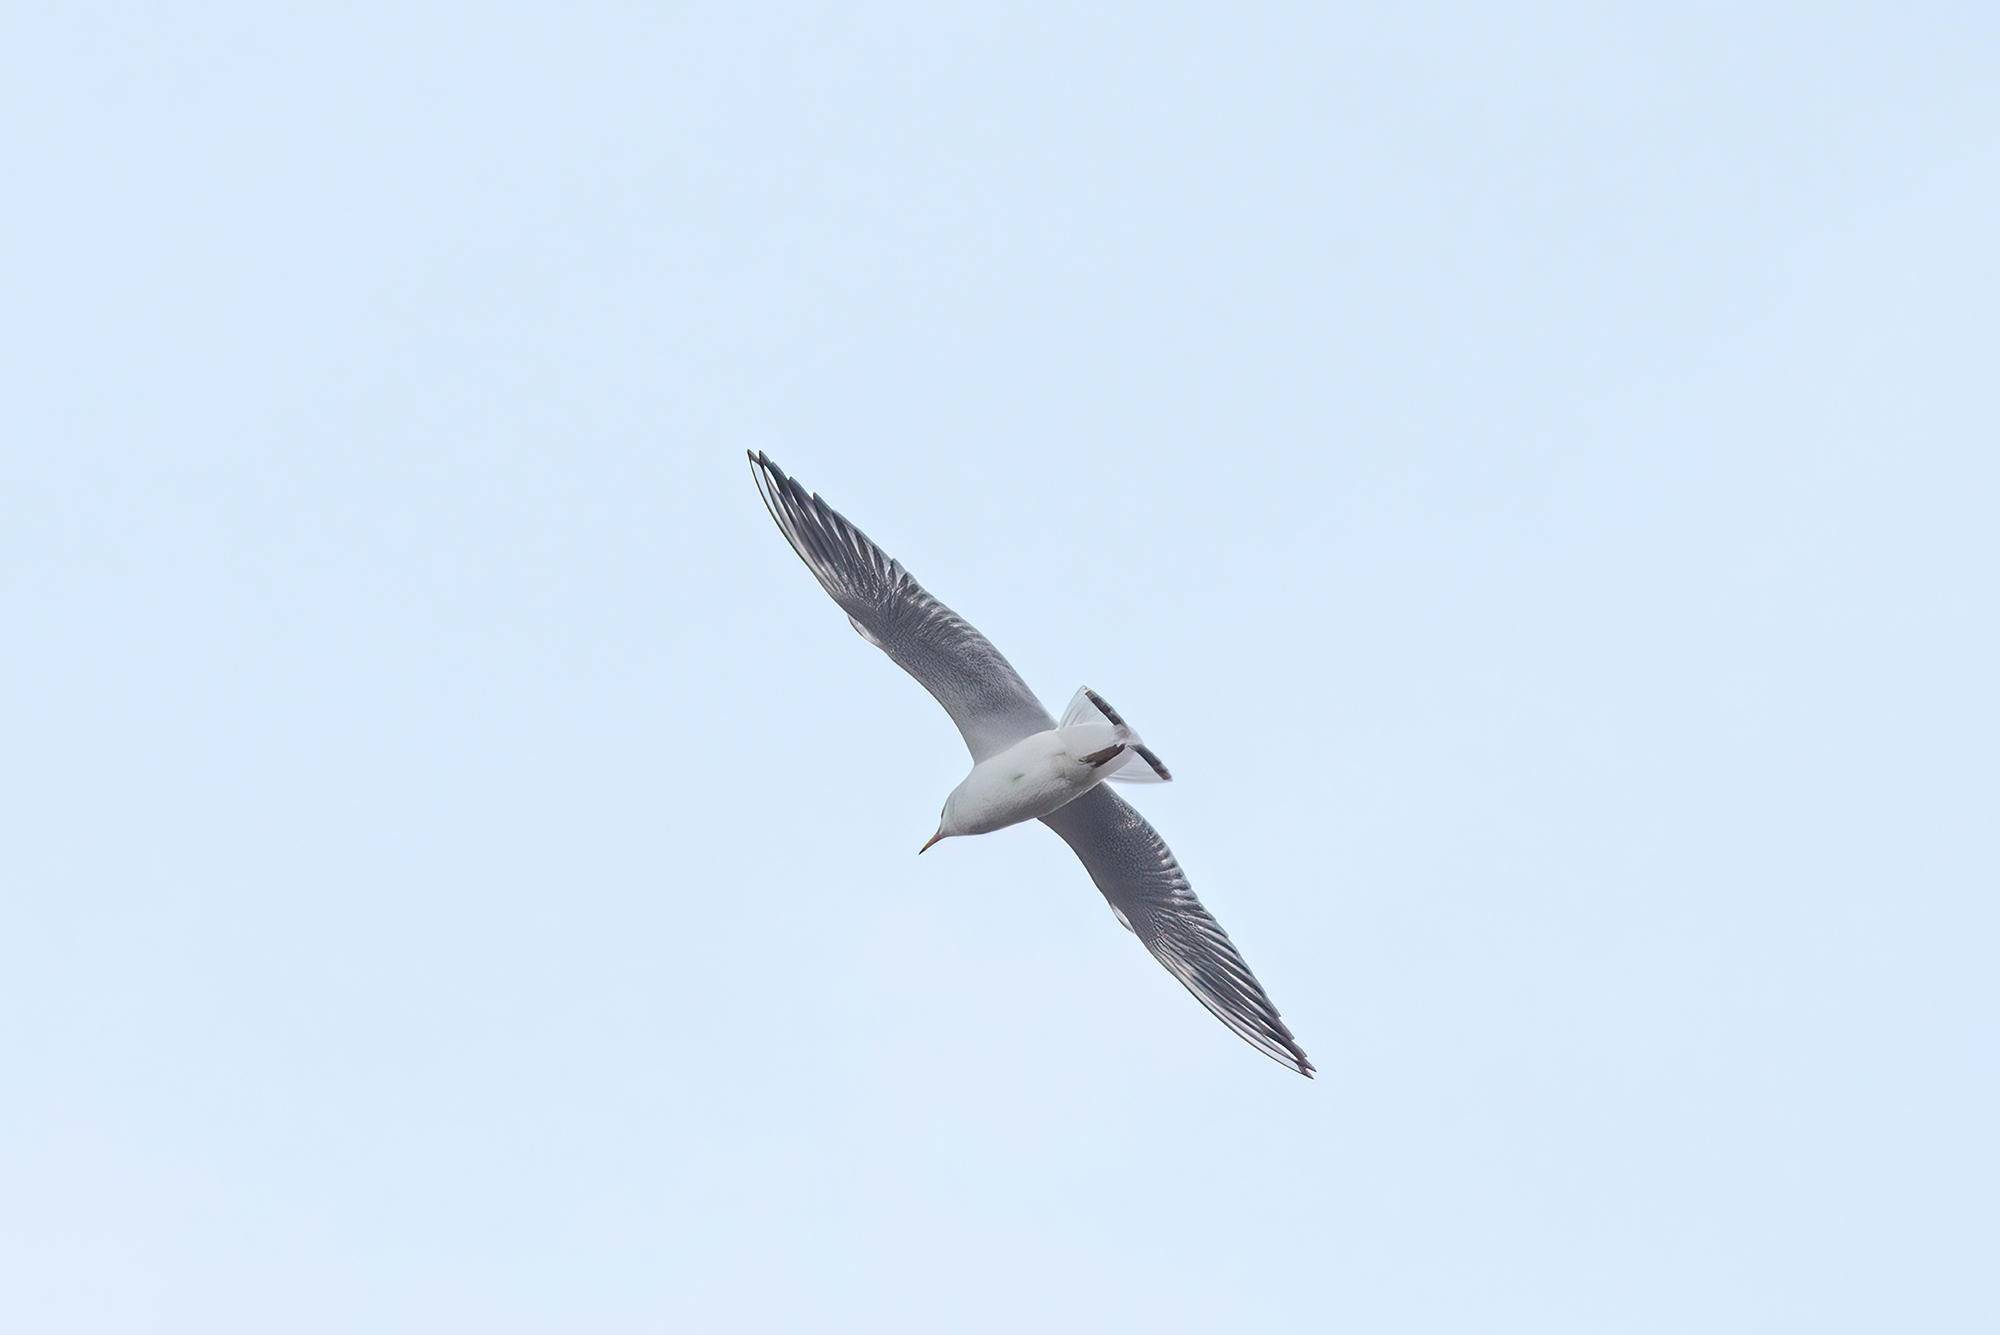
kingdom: Animalia
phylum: Chordata
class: Aves
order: Charadriiformes
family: Laridae
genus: Chroicocephalus
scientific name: Chroicocephalus ridibundus
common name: Black-headed gull
